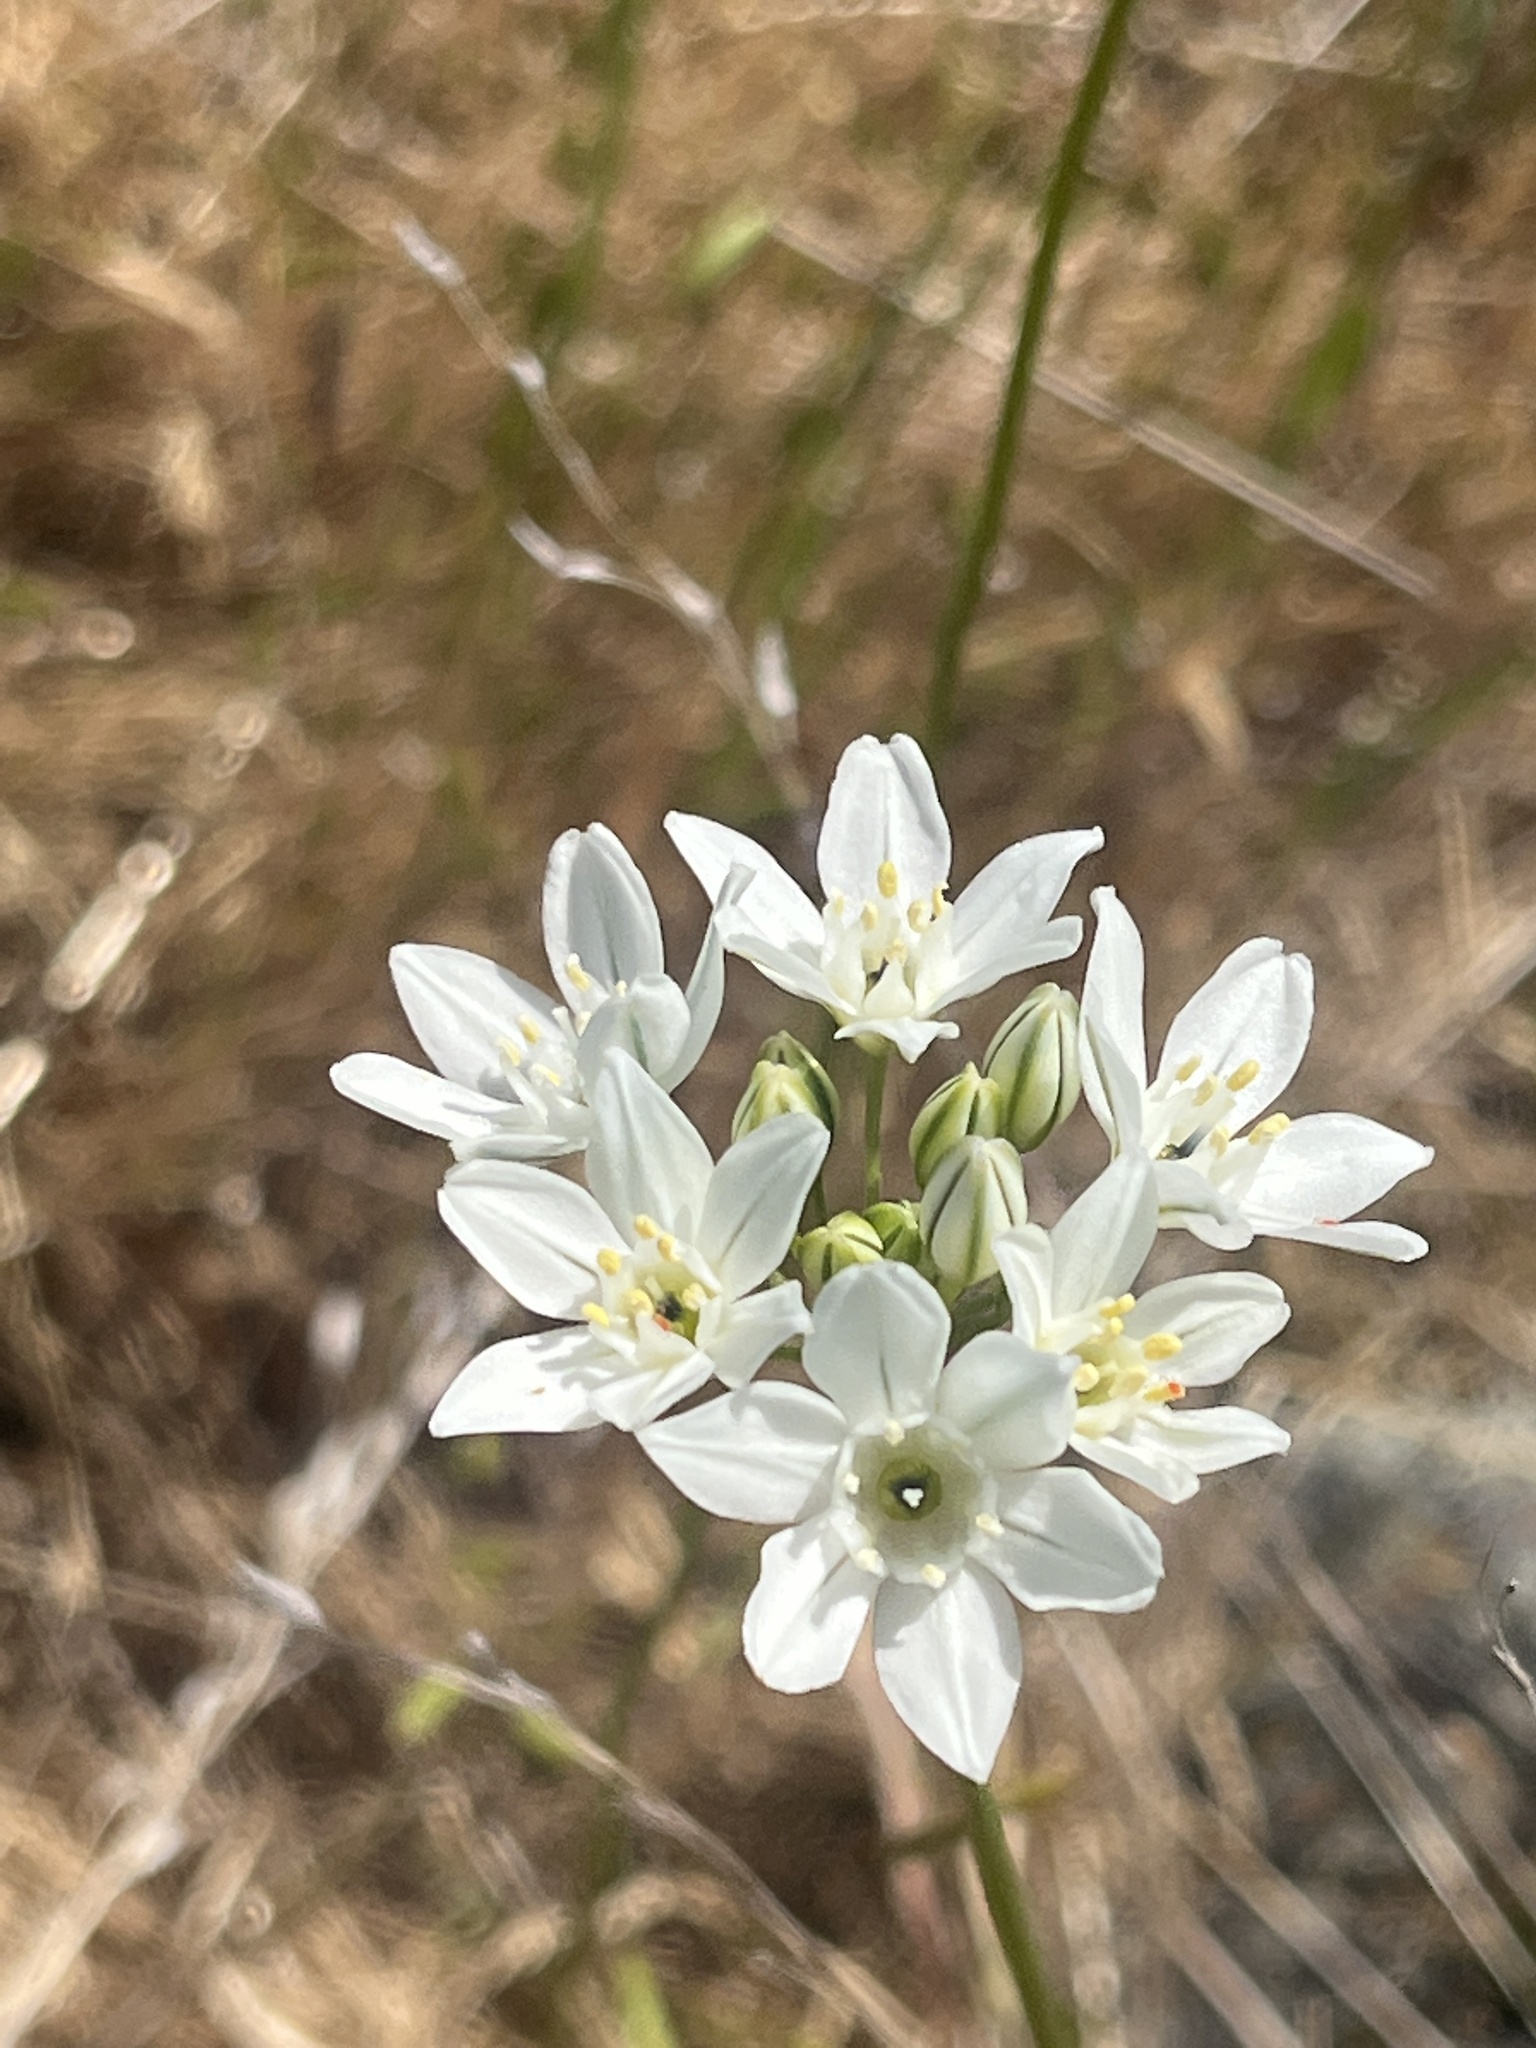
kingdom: Plantae
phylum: Tracheophyta
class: Liliopsida
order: Asparagales
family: Asparagaceae
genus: Triteleia
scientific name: Triteleia hyacinthina
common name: White brodiaea
